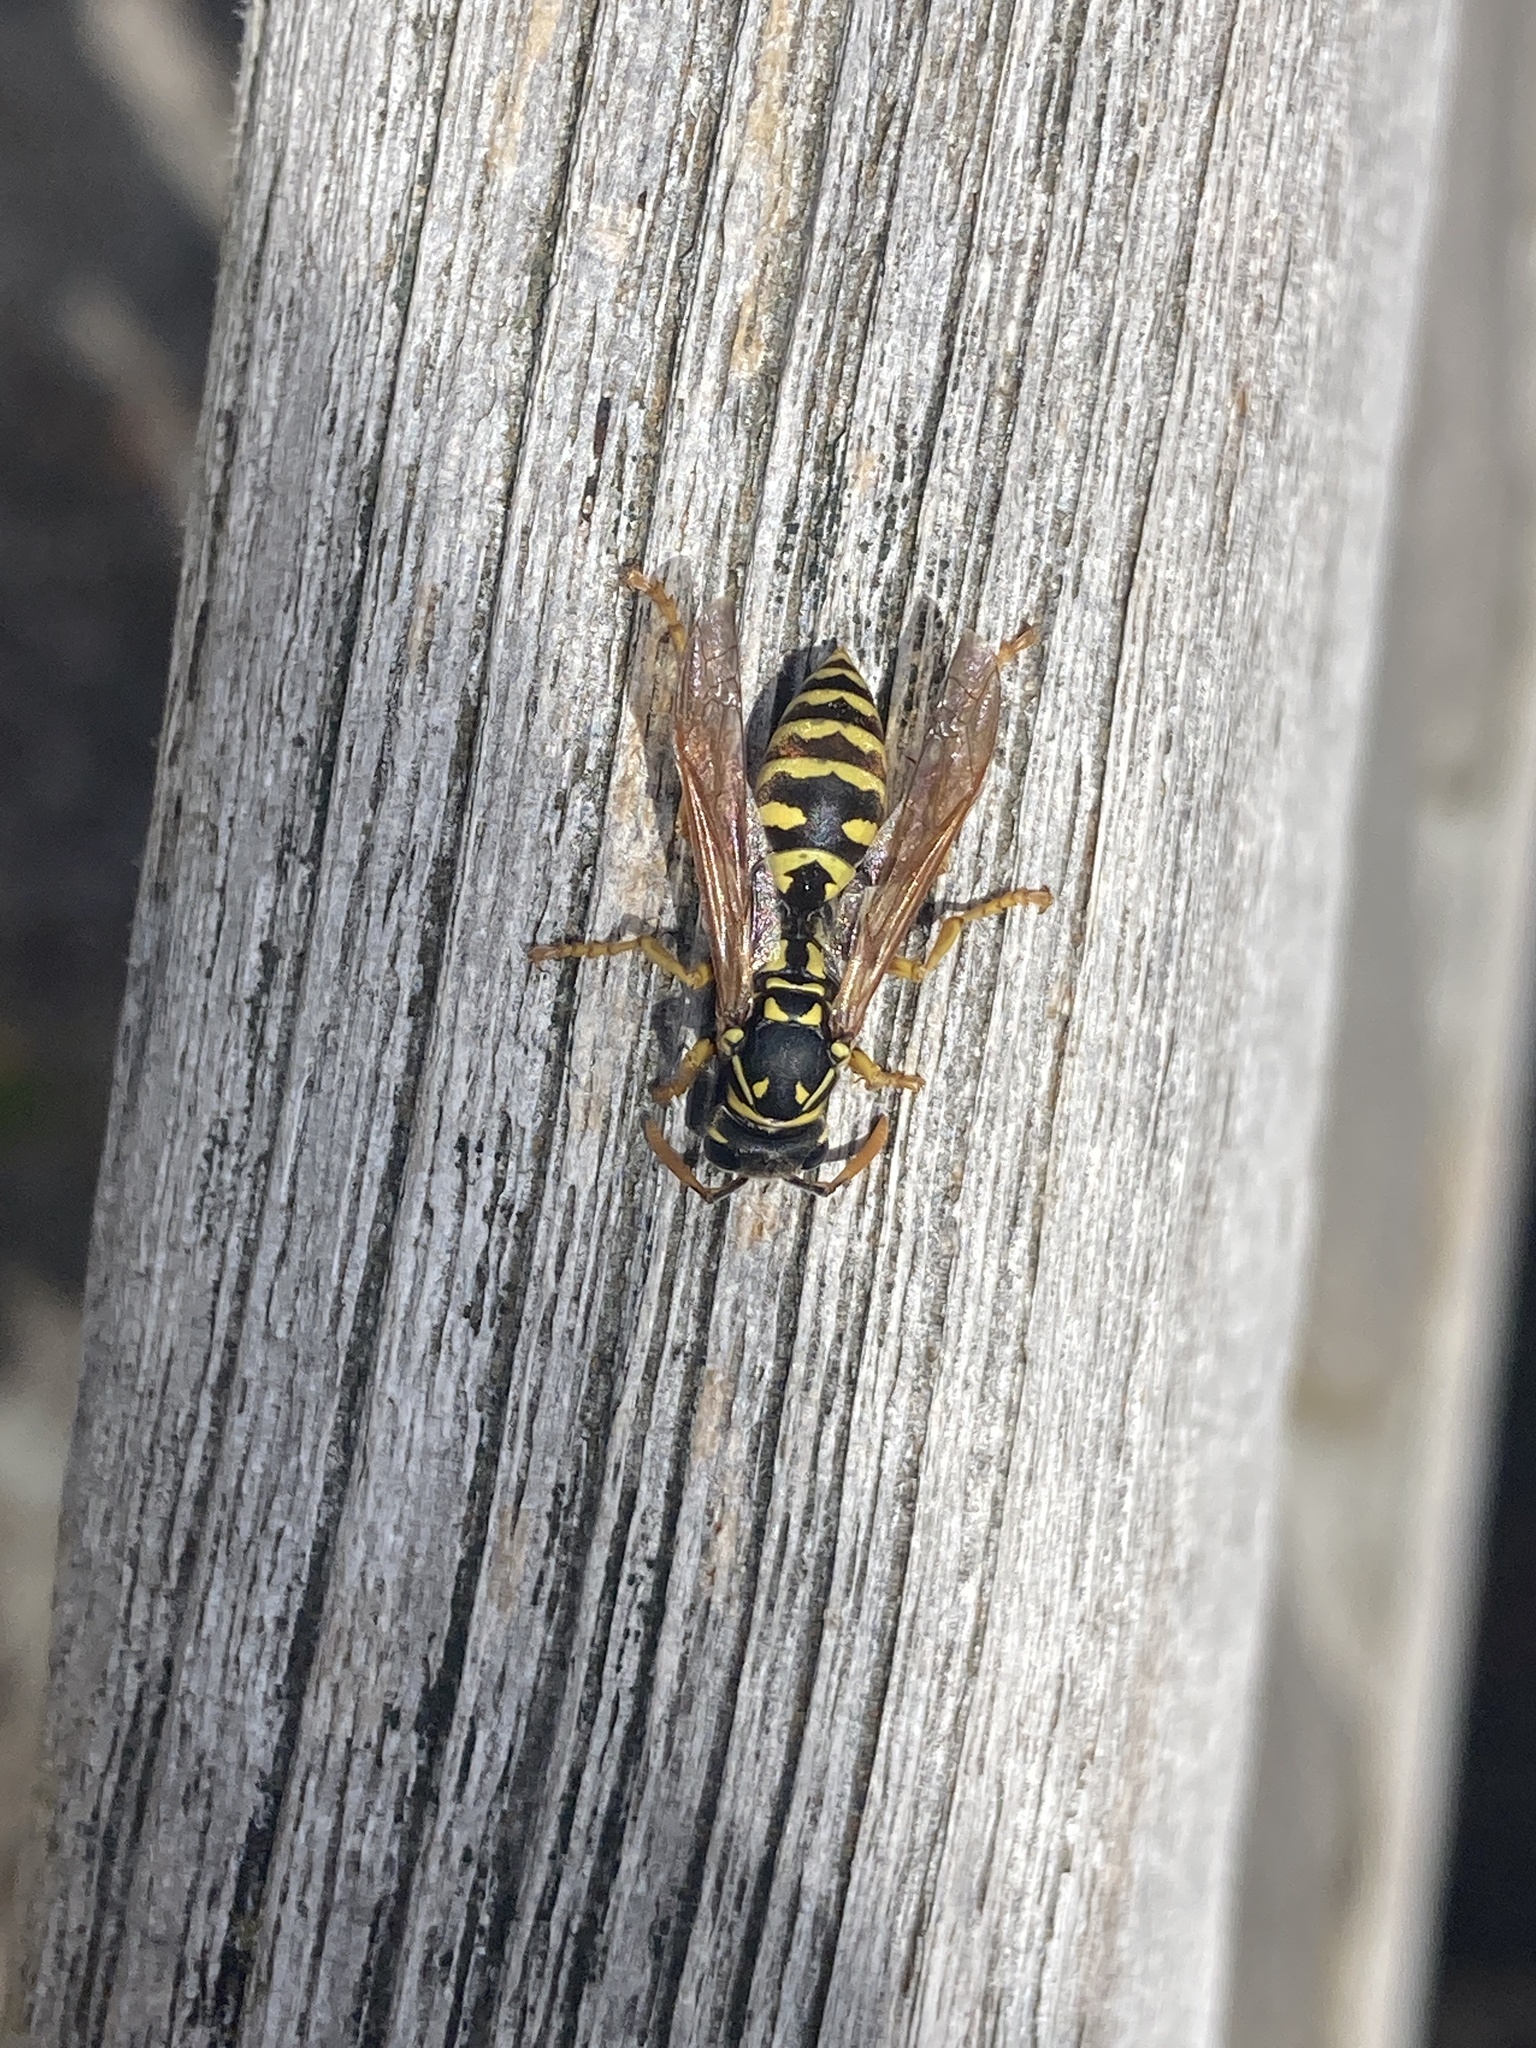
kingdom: Animalia
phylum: Arthropoda
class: Insecta
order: Hymenoptera
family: Eumenidae
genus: Polistes
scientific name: Polistes dominula
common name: Paper wasp
